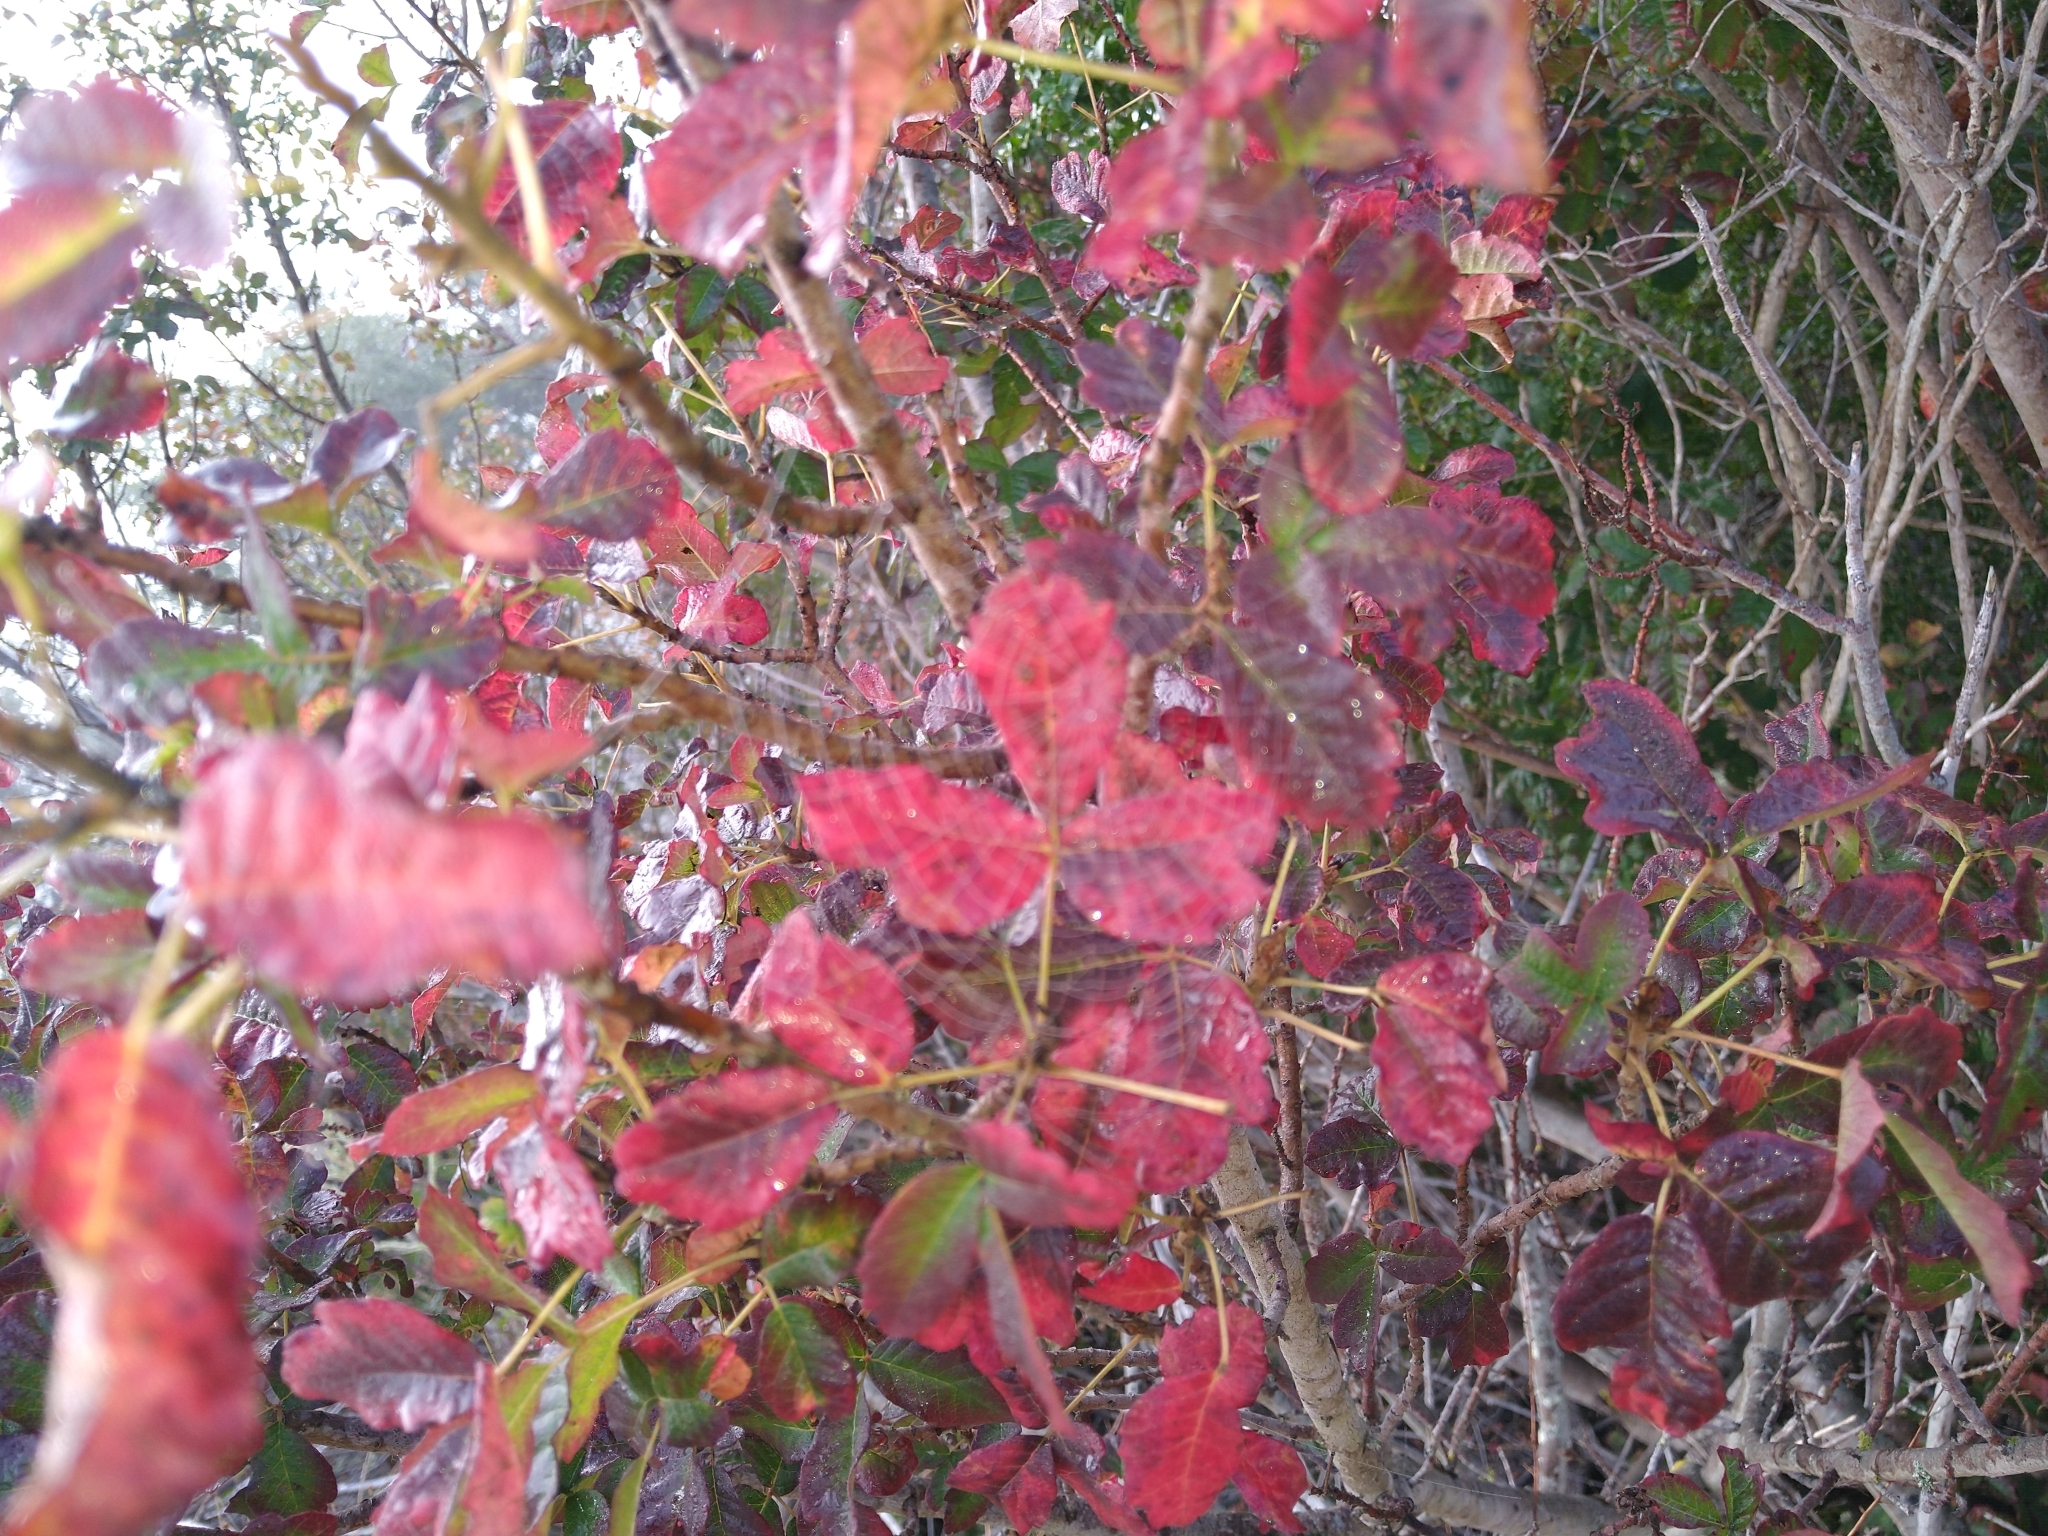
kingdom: Plantae
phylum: Tracheophyta
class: Magnoliopsida
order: Sapindales
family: Anacardiaceae
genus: Toxicodendron
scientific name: Toxicodendron diversilobum
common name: Pacific poison-oak
